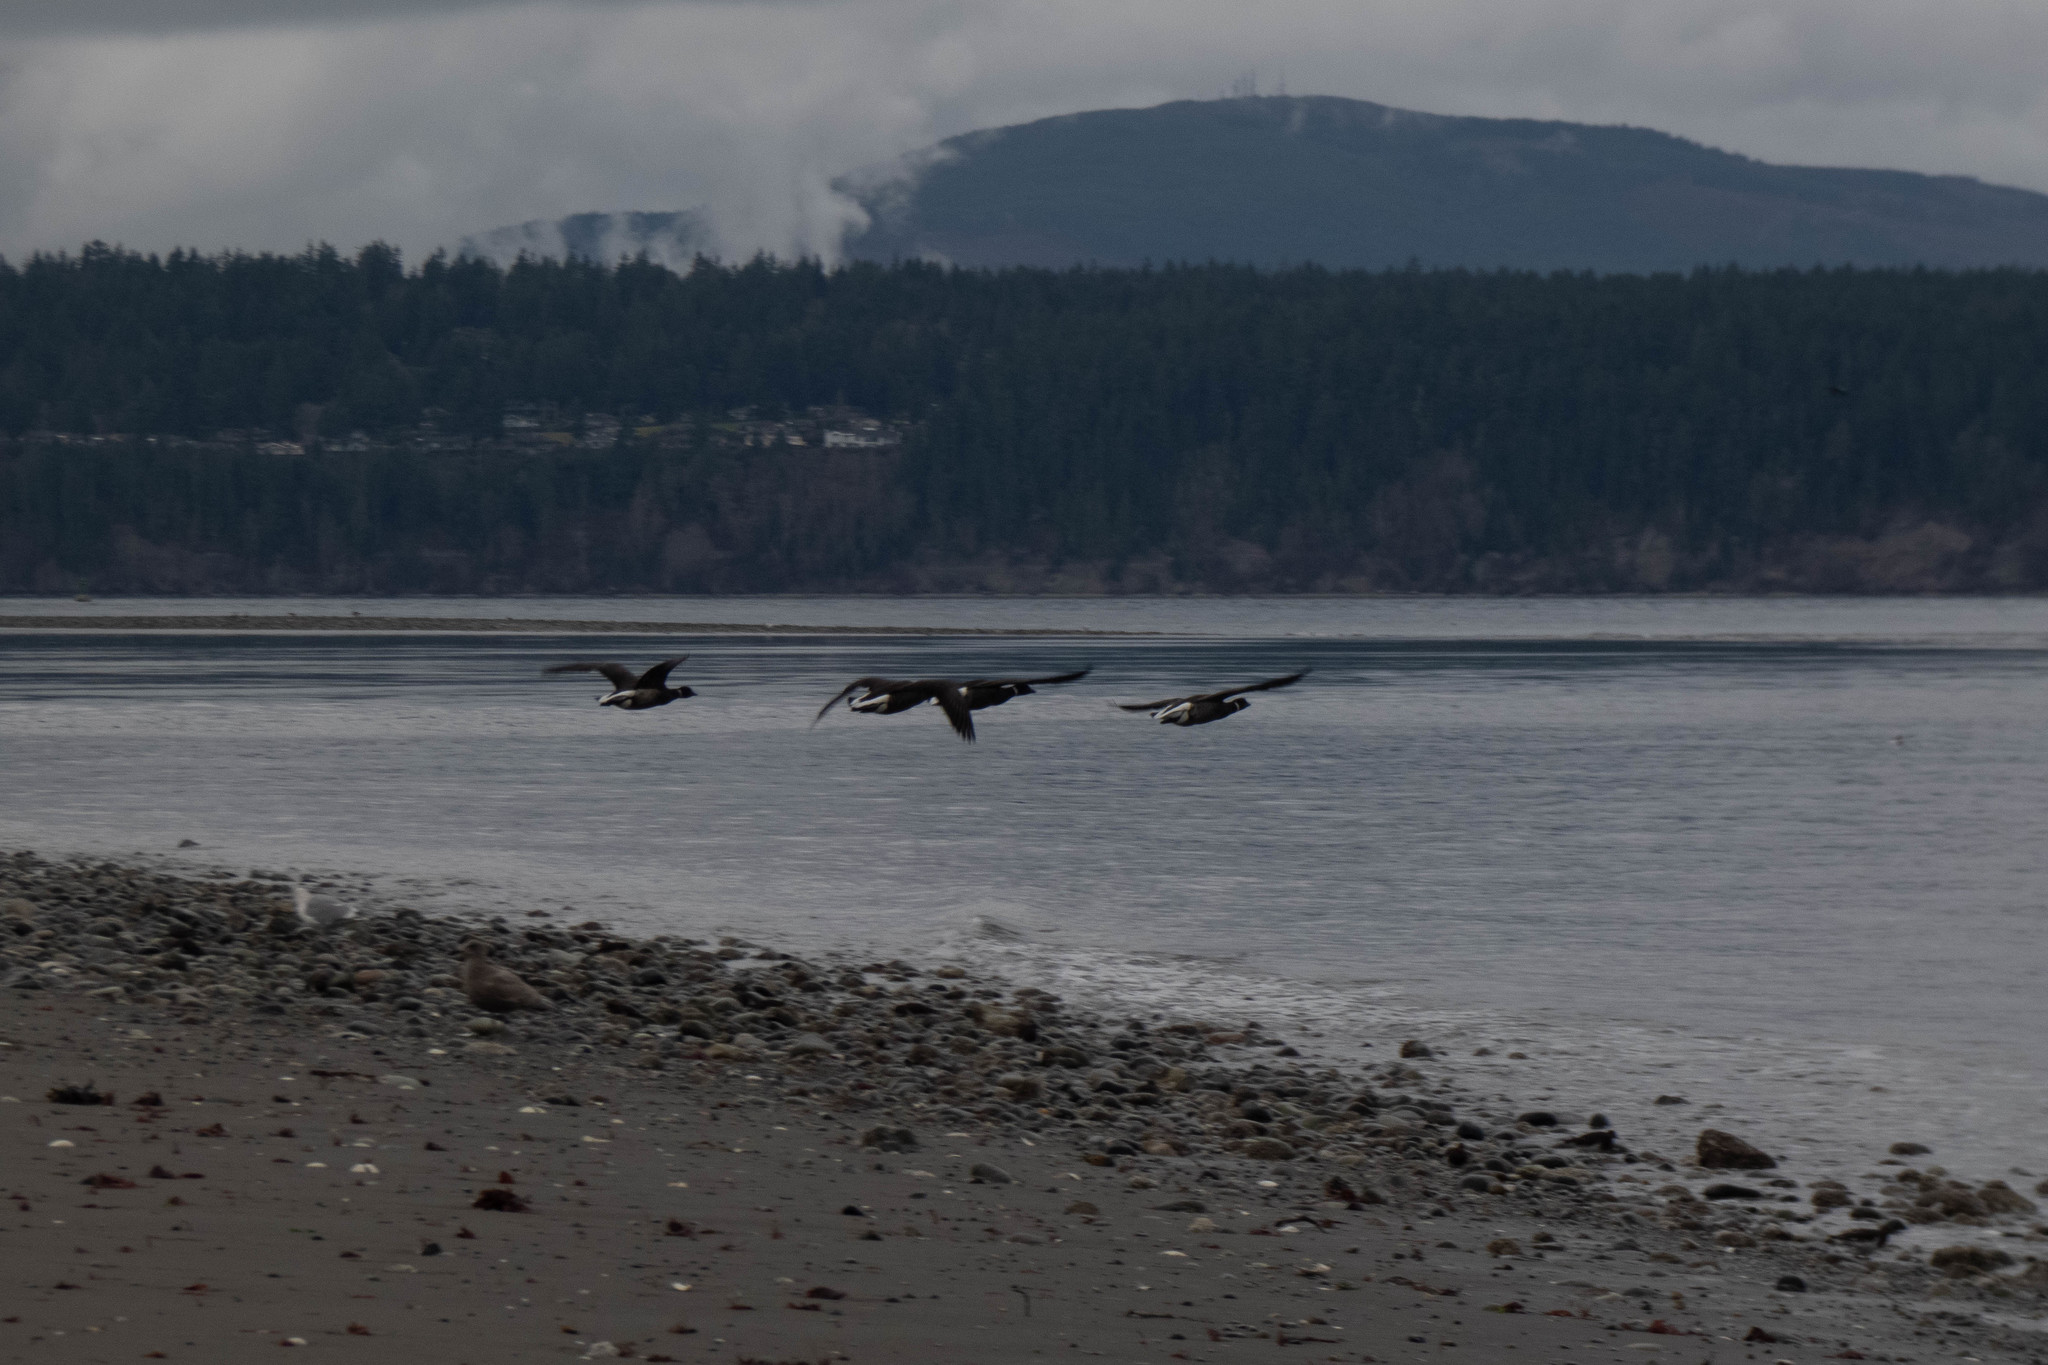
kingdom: Animalia
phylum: Chordata
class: Aves
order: Anseriformes
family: Anatidae
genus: Branta
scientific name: Branta bernicla
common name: Brant goose
